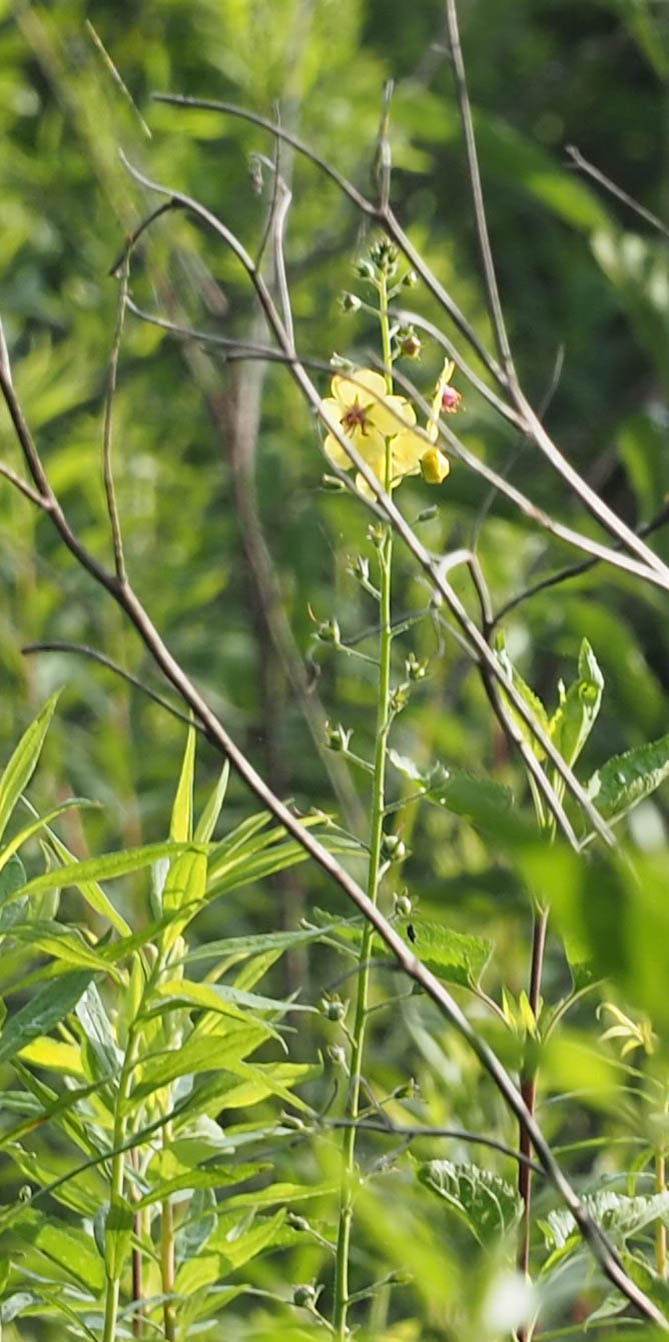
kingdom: Plantae
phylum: Tracheophyta
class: Magnoliopsida
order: Lamiales
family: Scrophulariaceae
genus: Verbascum
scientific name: Verbascum blattaria
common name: Moth mullein
